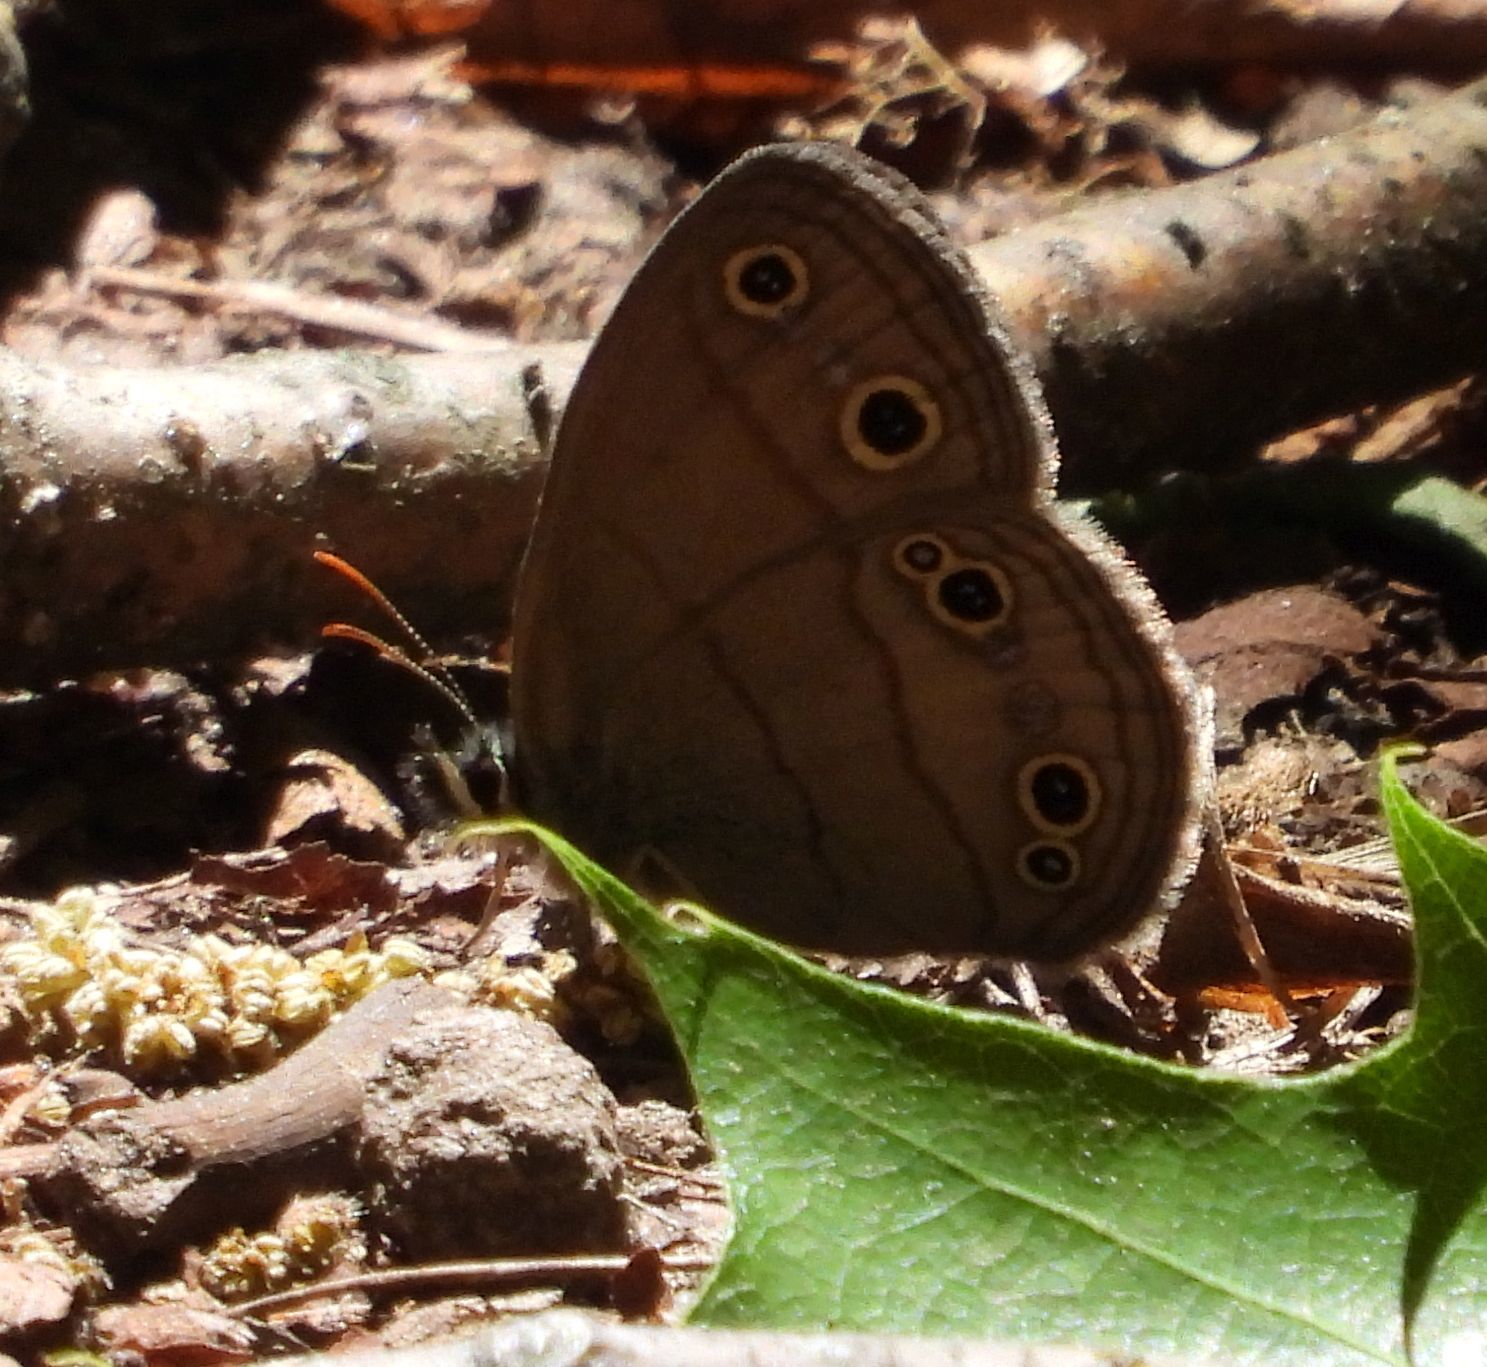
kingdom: Animalia
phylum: Arthropoda
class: Insecta
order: Lepidoptera
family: Nymphalidae
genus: Euptychia
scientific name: Euptychia cymela
